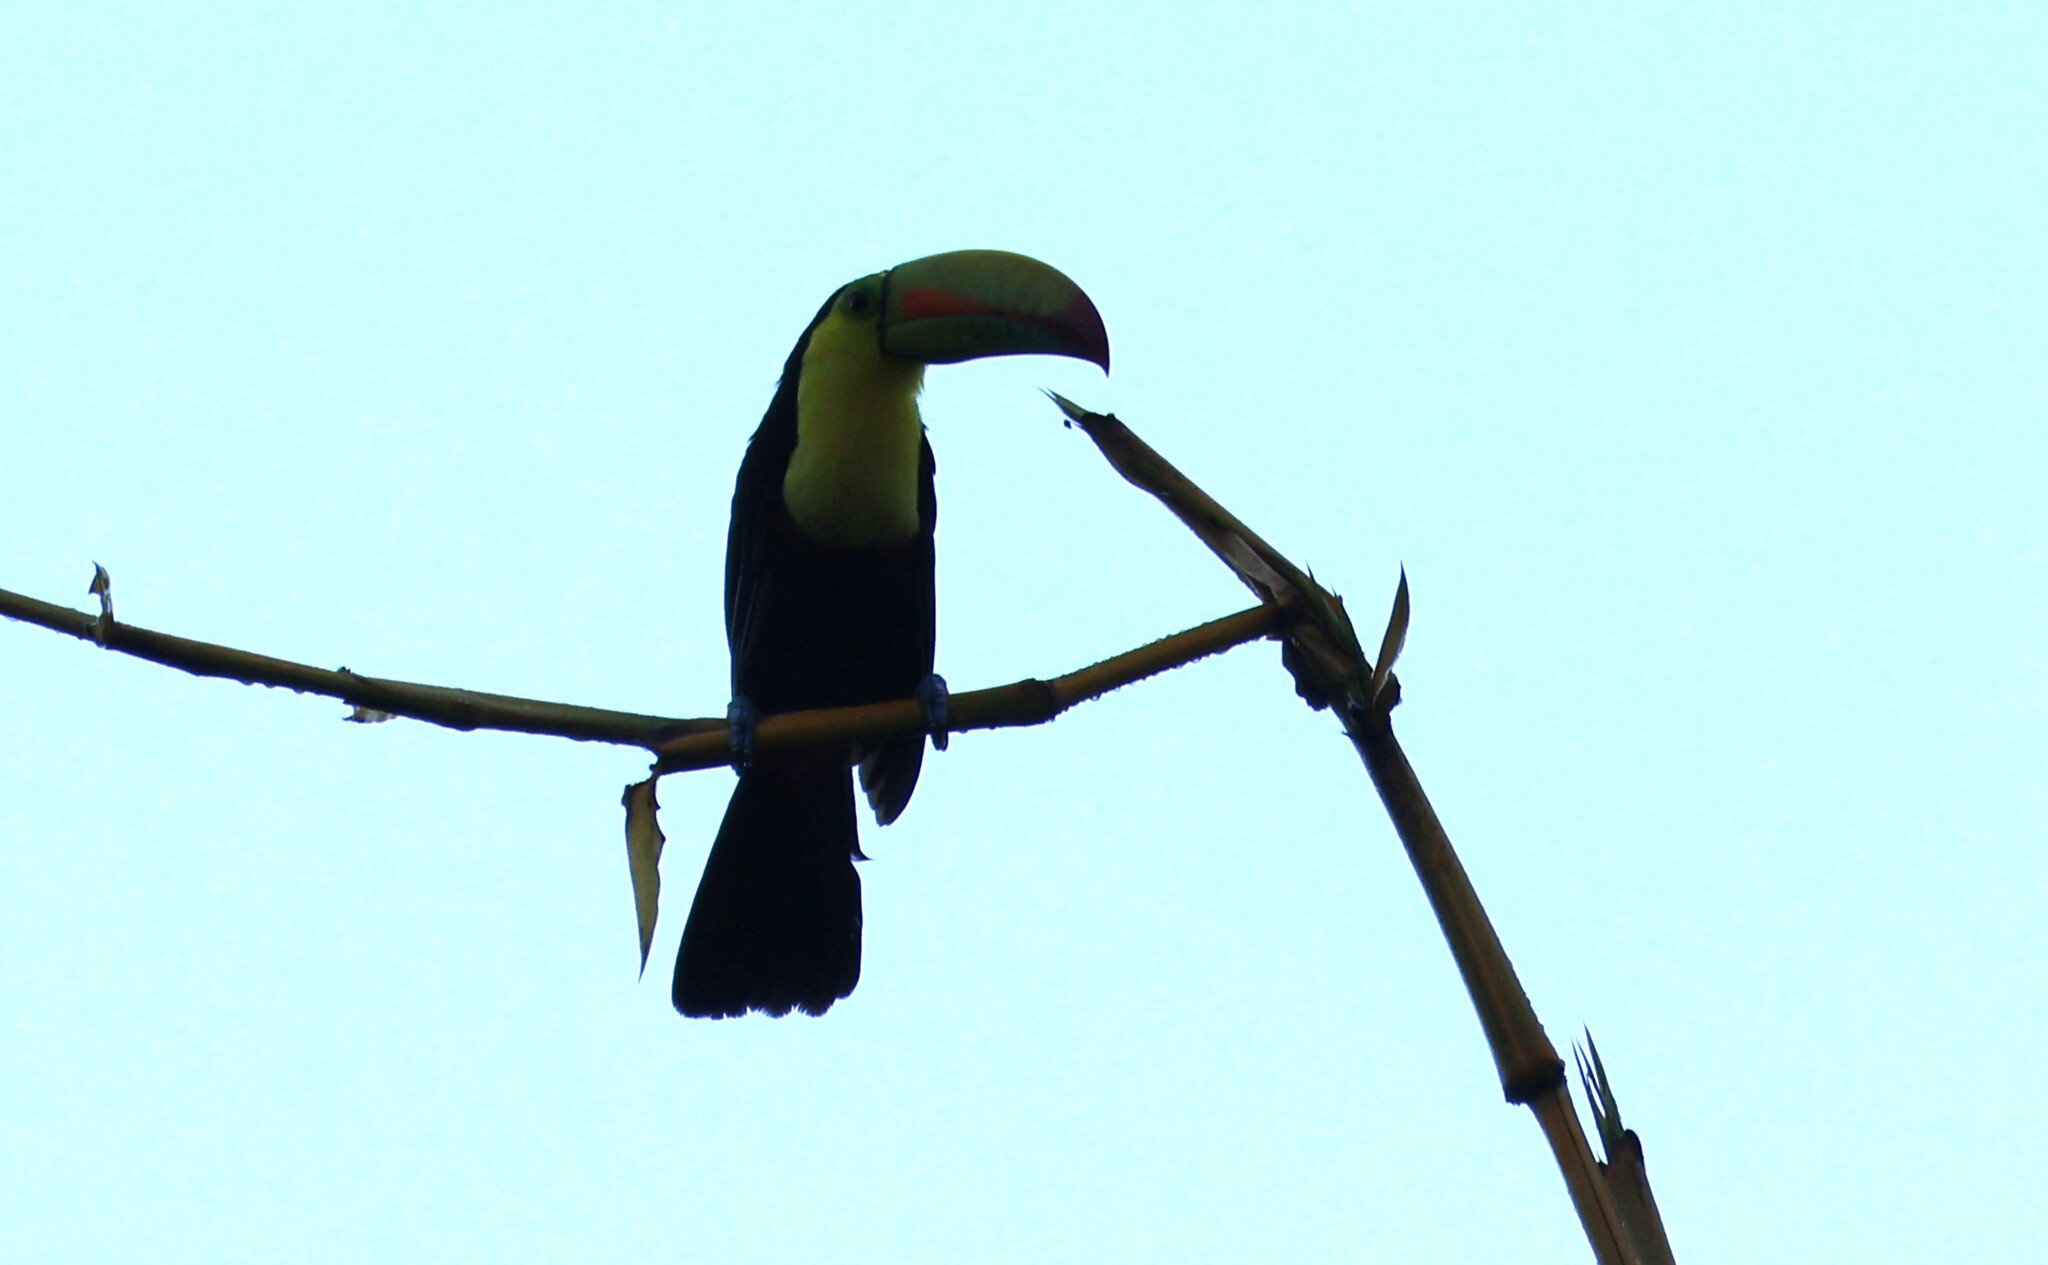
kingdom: Animalia
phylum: Chordata
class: Aves
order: Piciformes
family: Ramphastidae
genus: Ramphastos
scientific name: Ramphastos sulfuratus
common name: Keel-billed toucan
